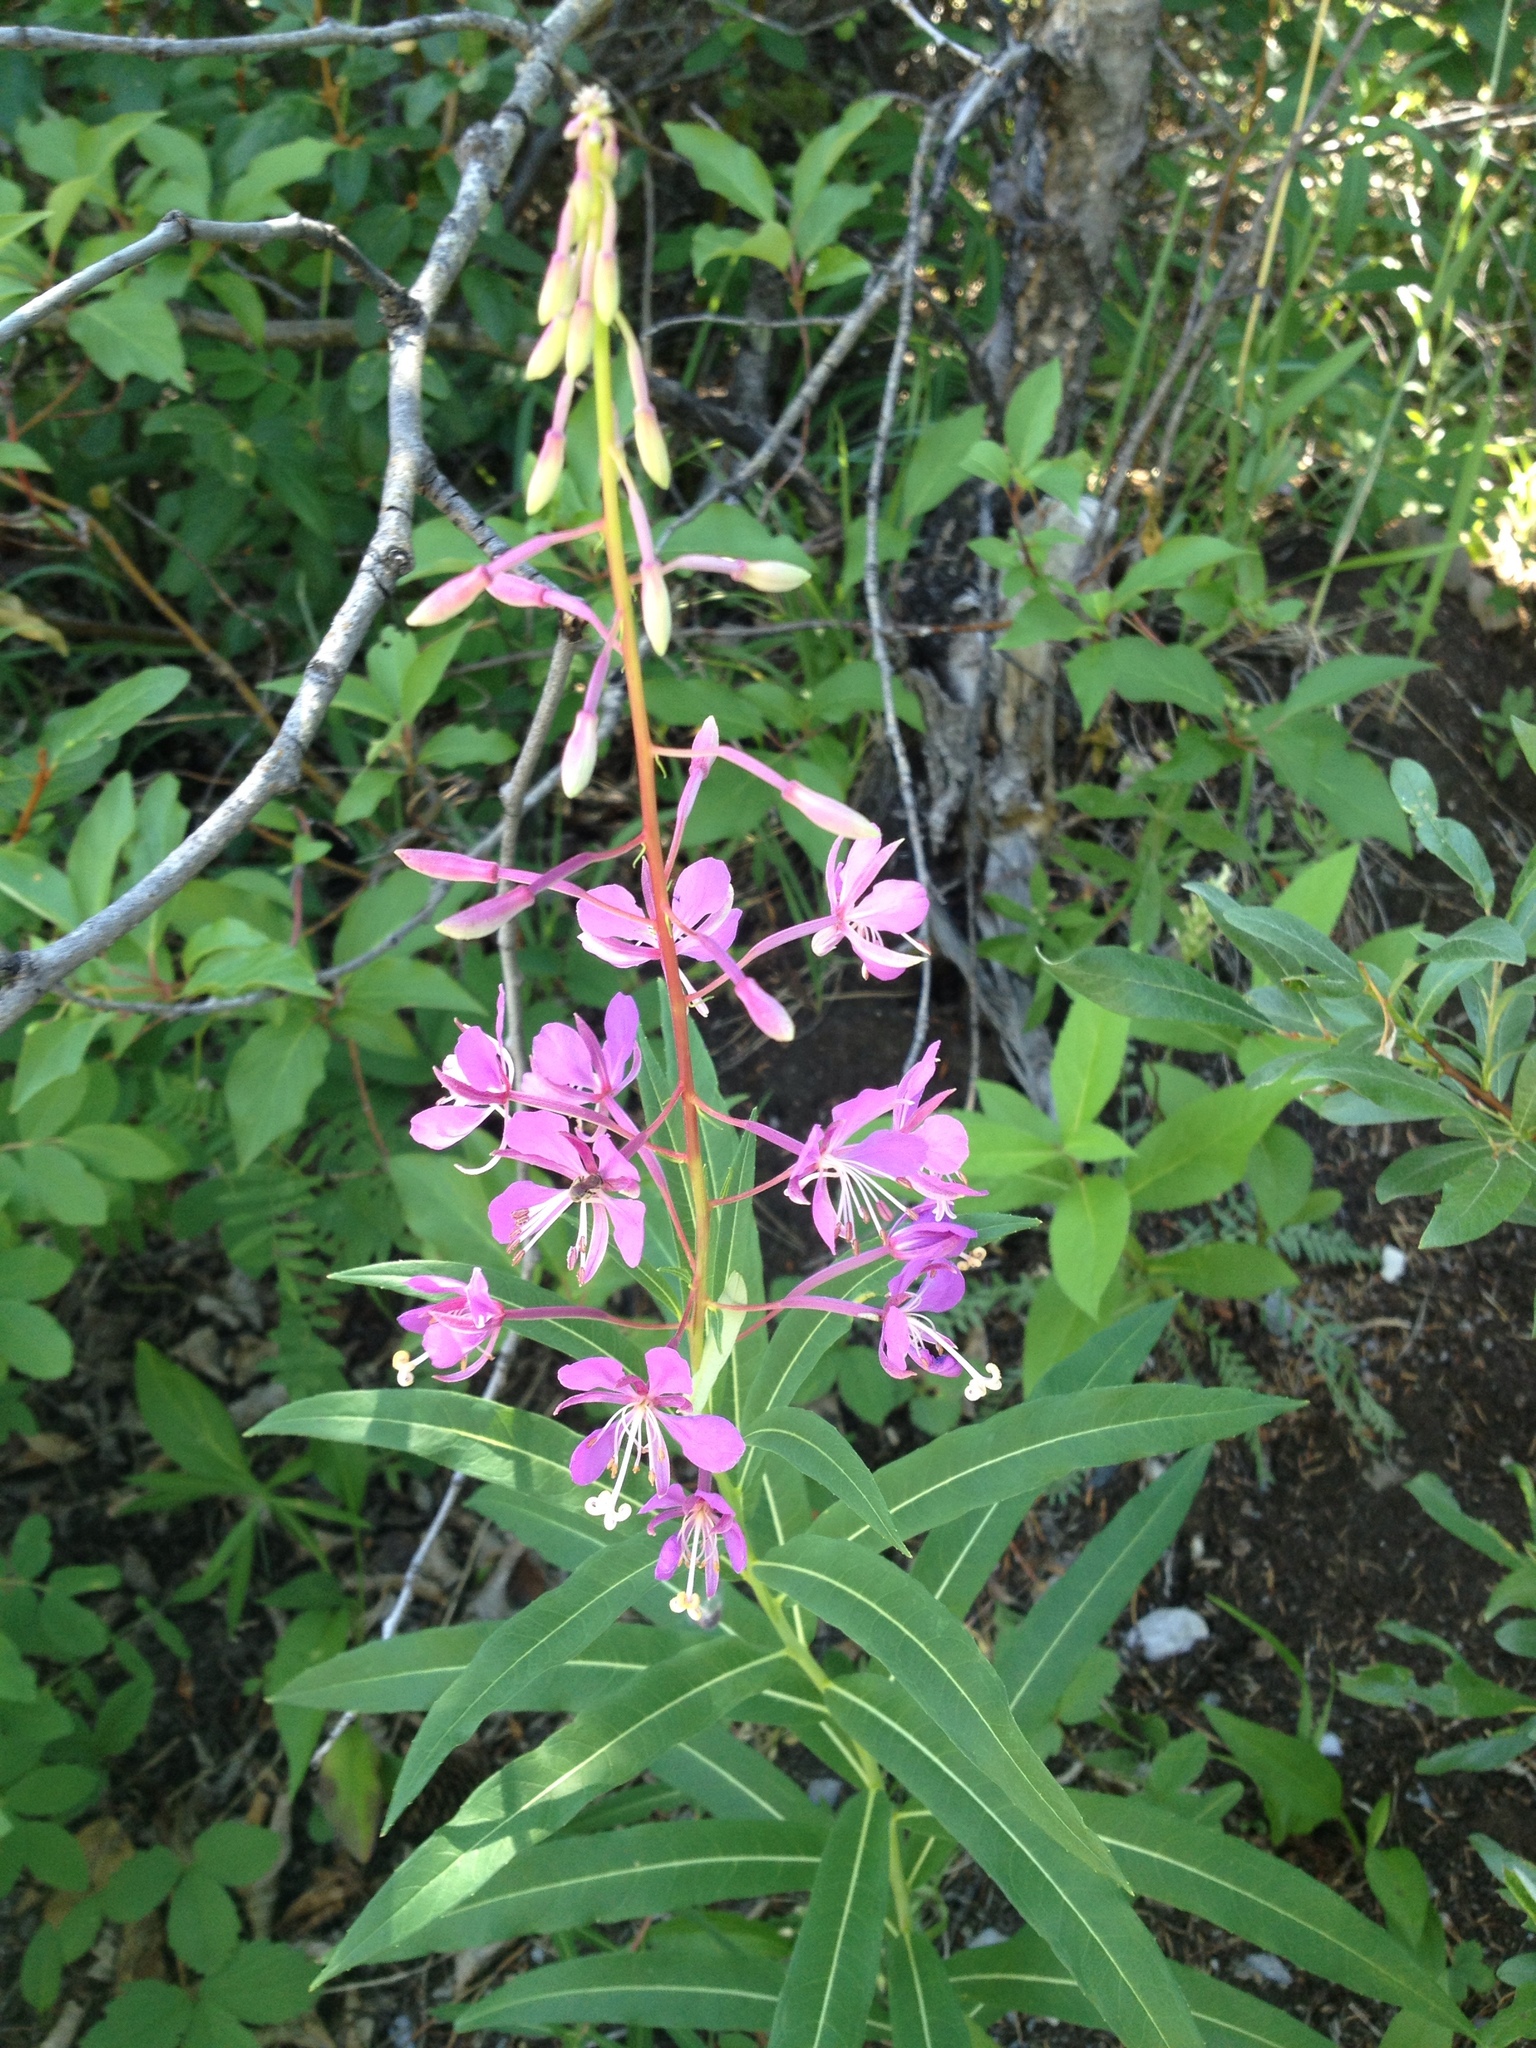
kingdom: Plantae
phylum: Tracheophyta
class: Magnoliopsida
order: Myrtales
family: Onagraceae
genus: Chamaenerion
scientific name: Chamaenerion angustifolium
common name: Fireweed
